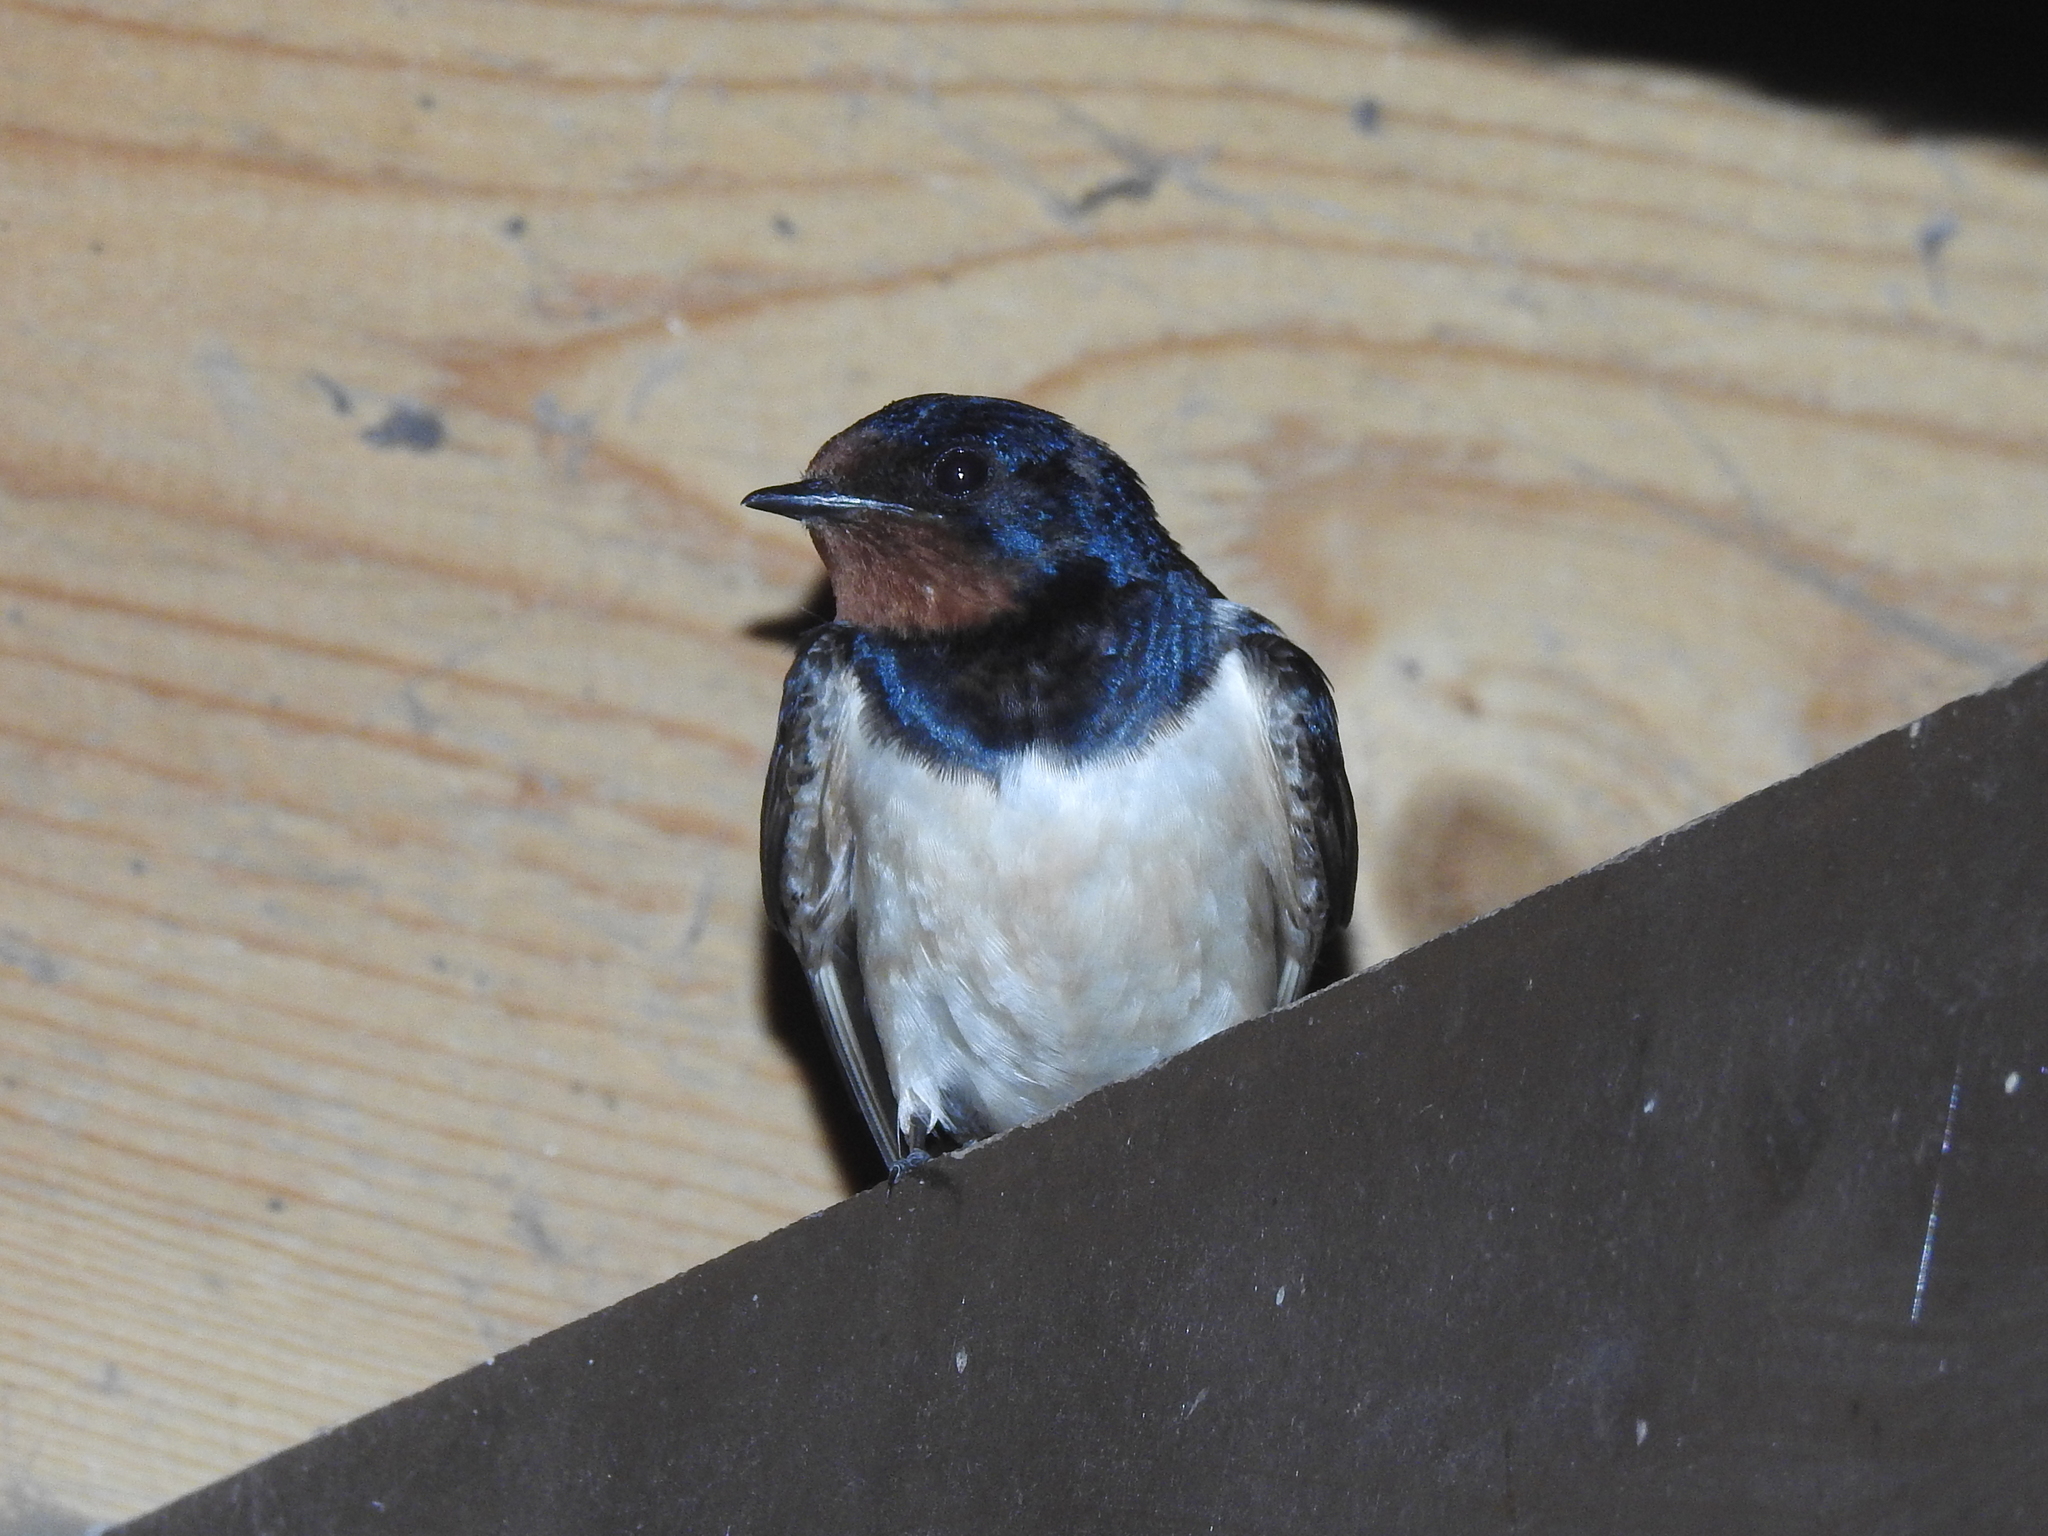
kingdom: Animalia
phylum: Chordata
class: Aves
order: Passeriformes
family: Hirundinidae
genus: Hirundo
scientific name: Hirundo rustica
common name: Barn swallow
